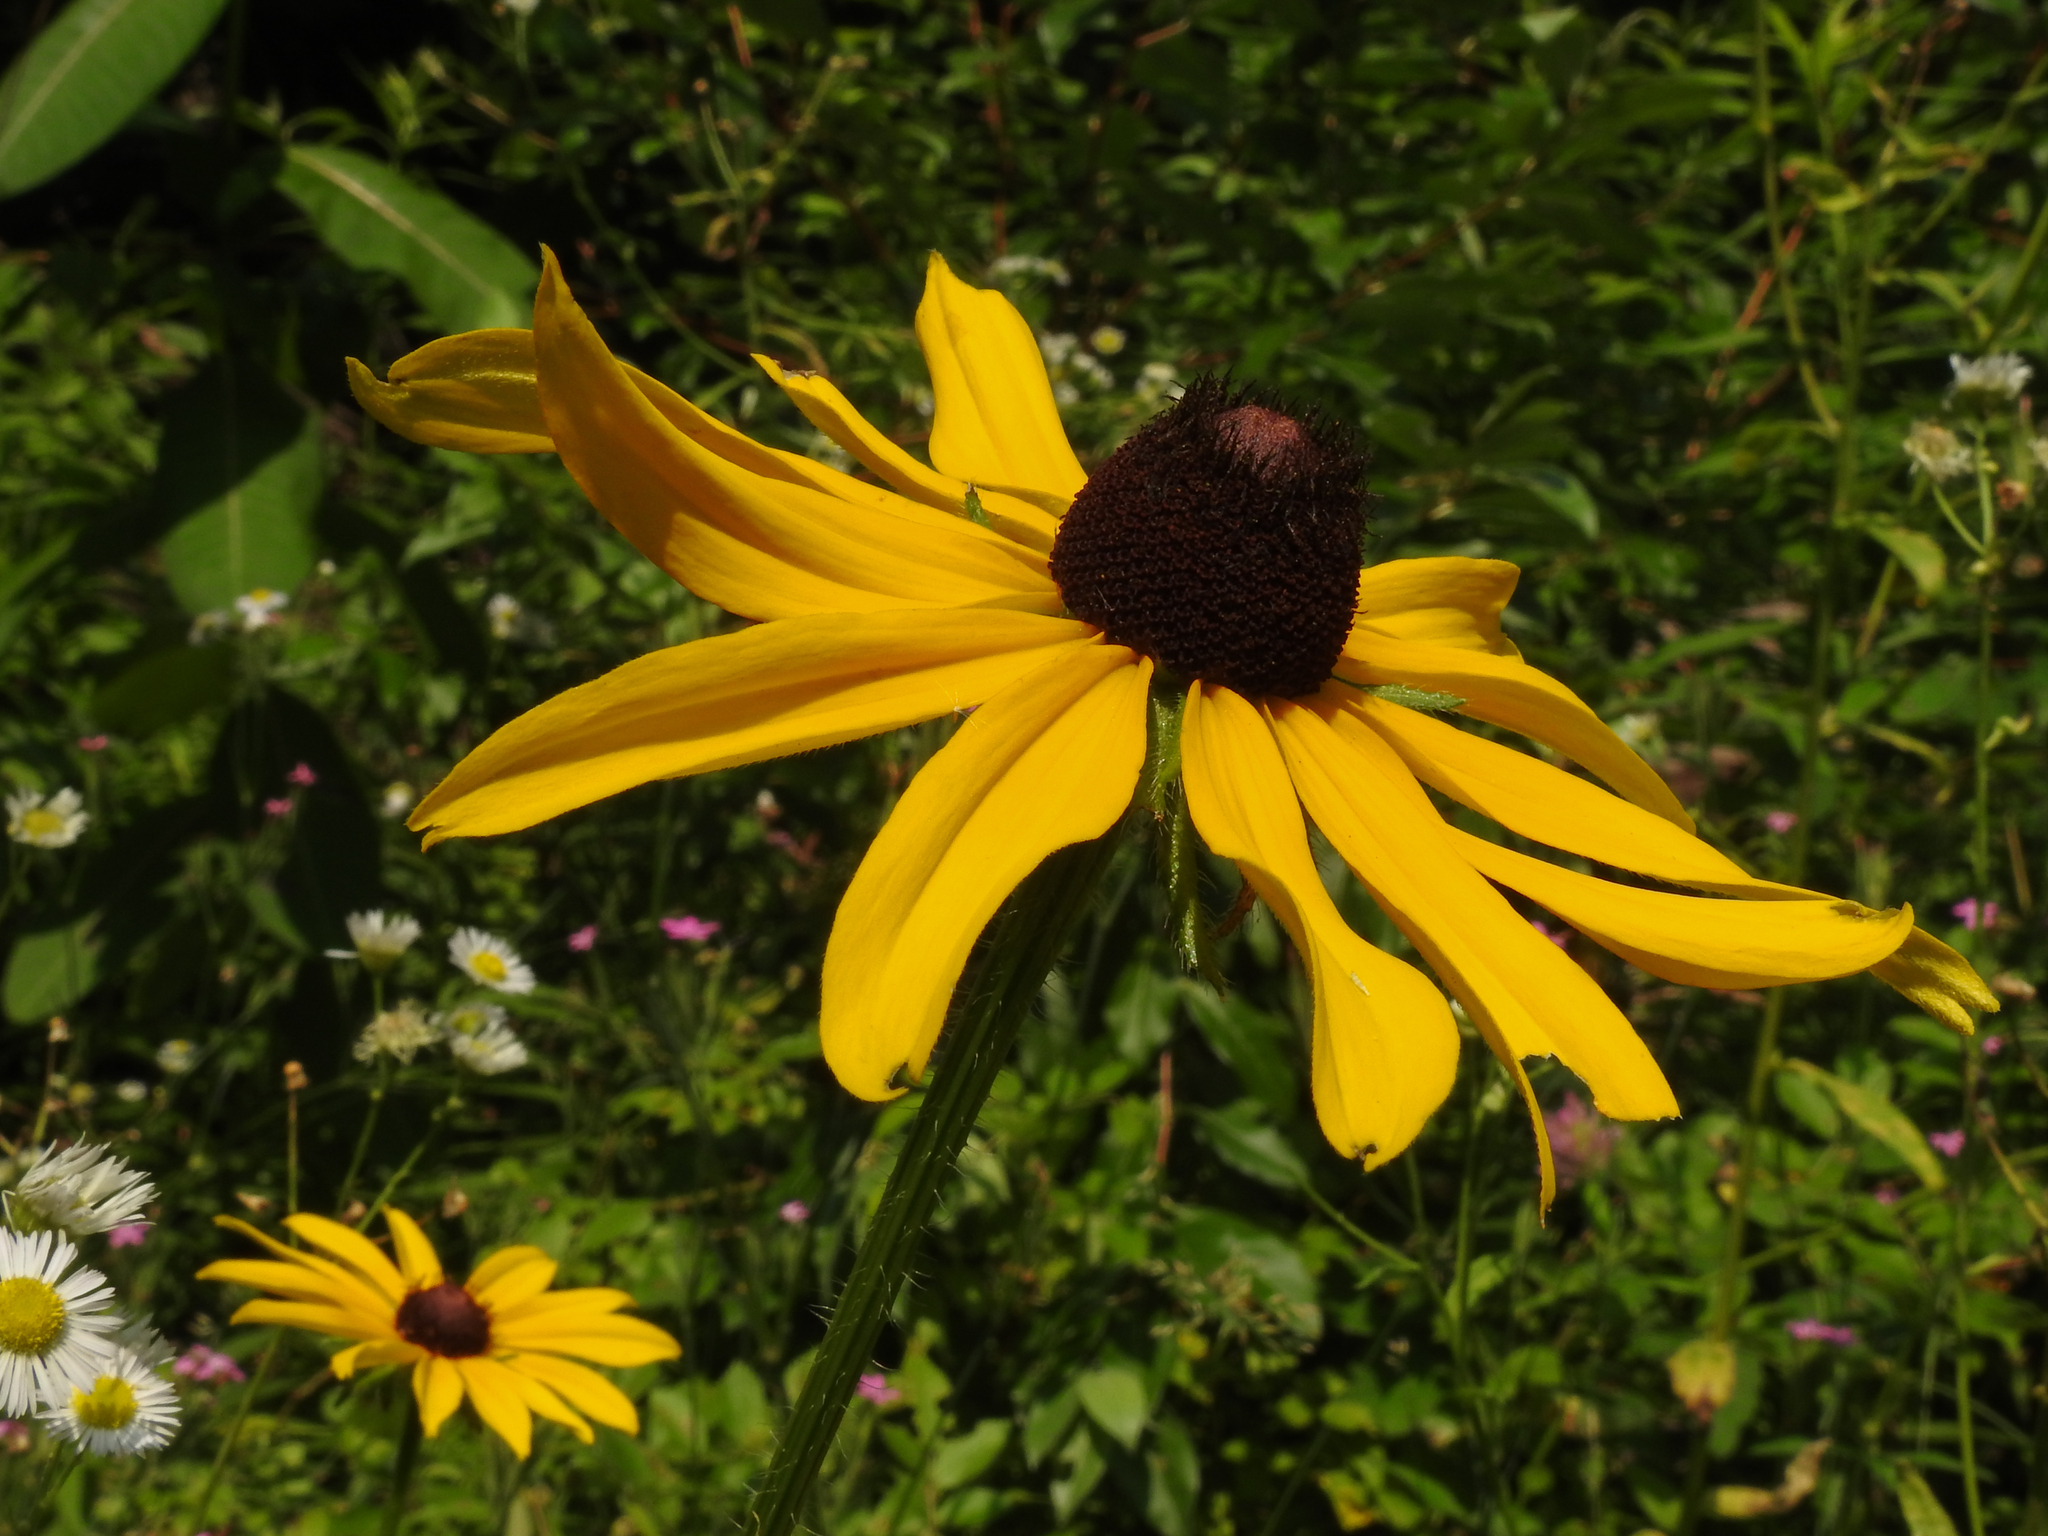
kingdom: Plantae
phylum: Tracheophyta
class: Magnoliopsida
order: Asterales
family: Asteraceae
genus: Rudbeckia
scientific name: Rudbeckia hirta
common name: Black-eyed-susan
